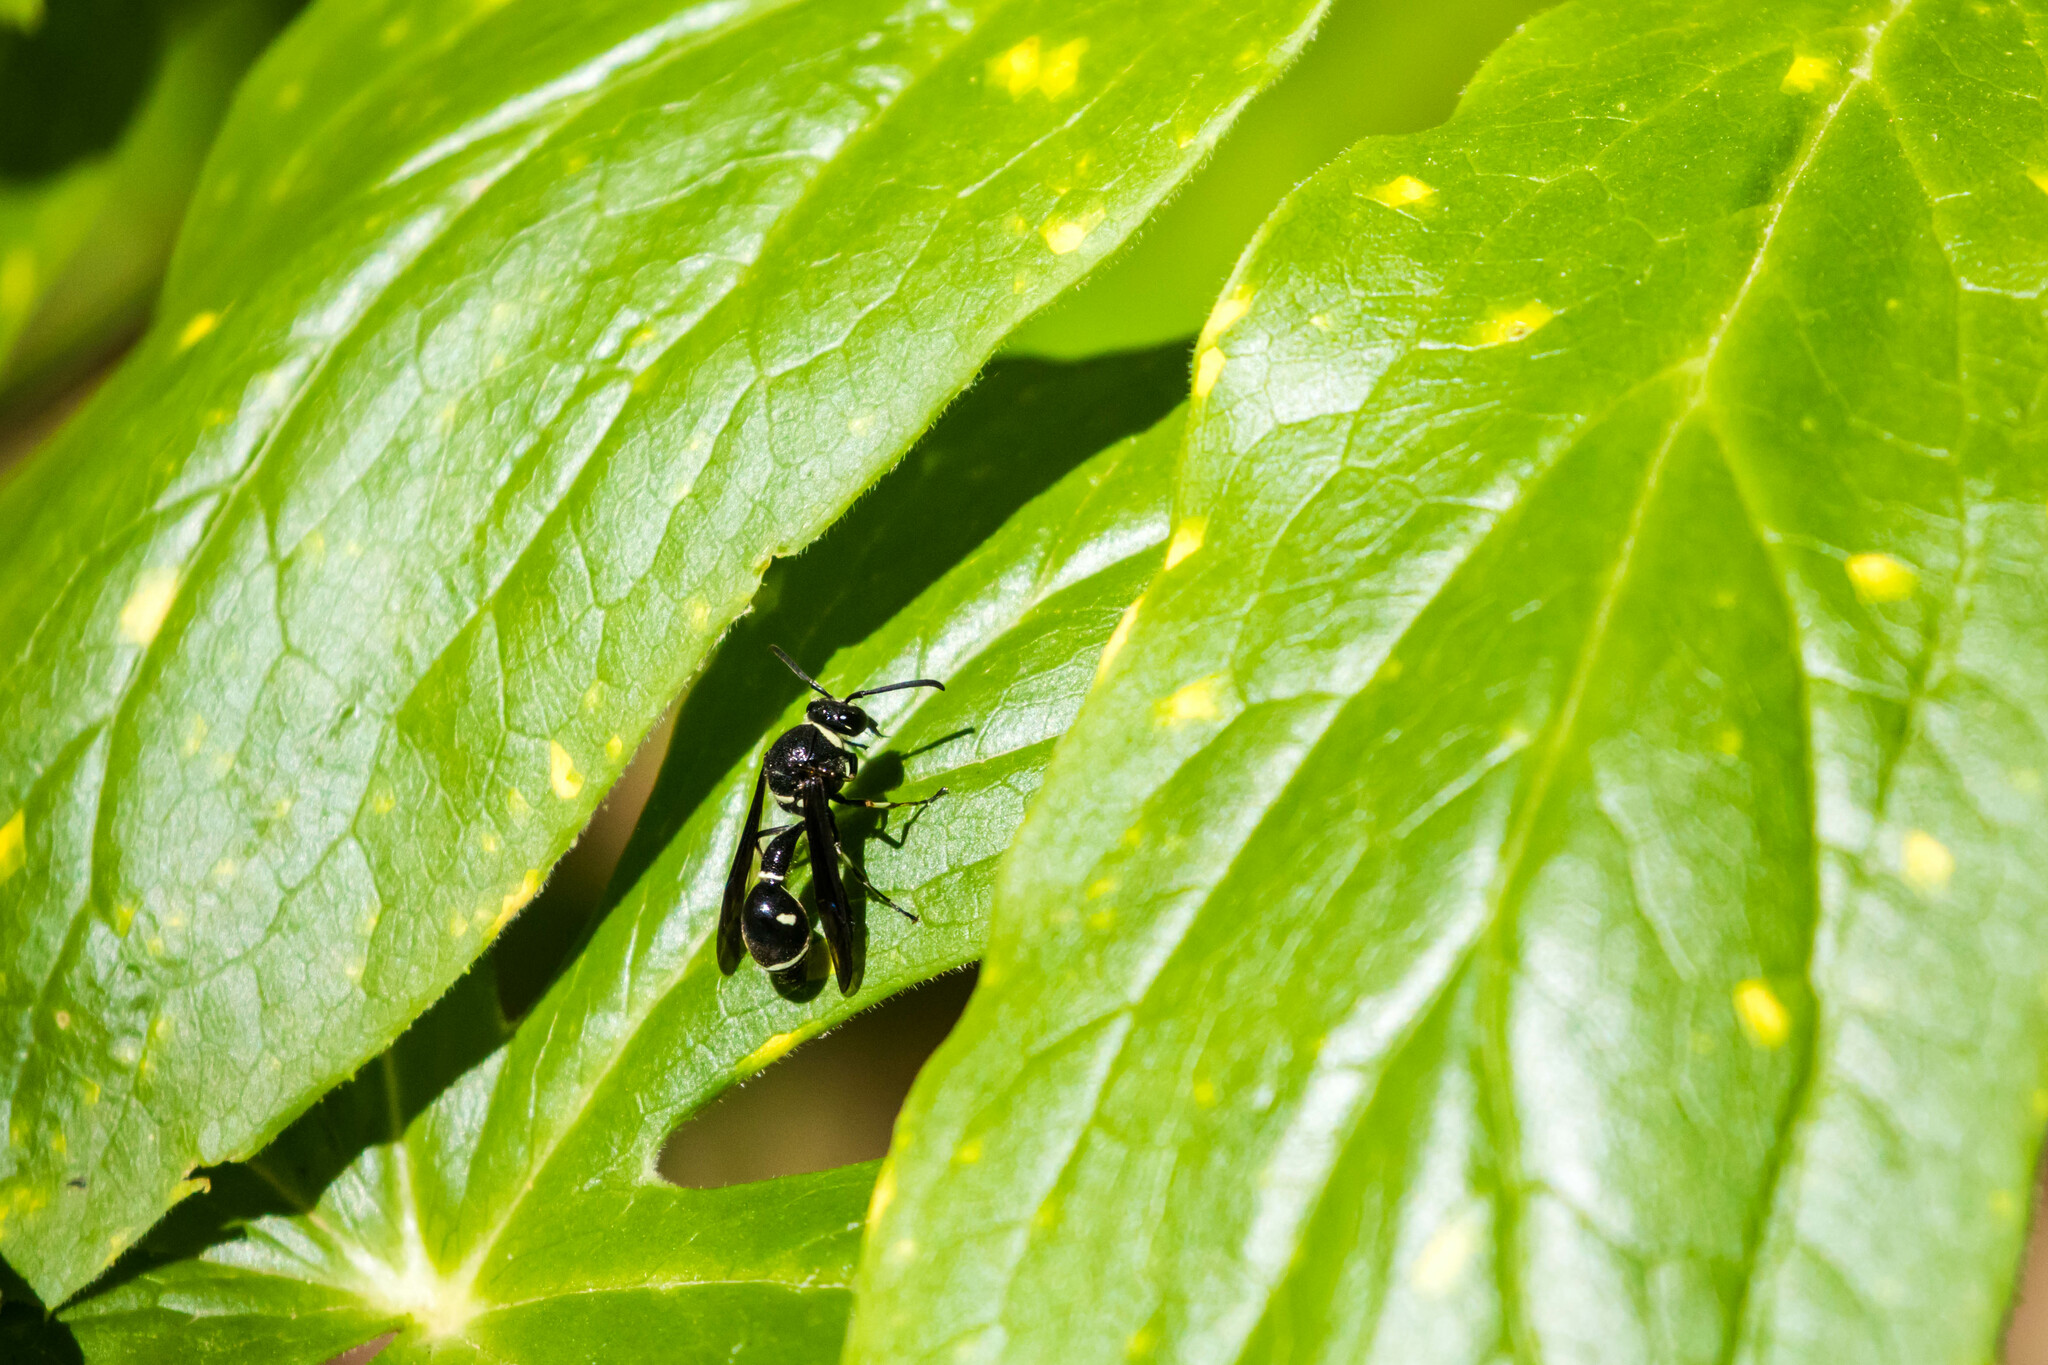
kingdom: Animalia
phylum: Arthropoda
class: Insecta
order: Hymenoptera
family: Vespidae
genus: Eumenes
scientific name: Eumenes fraternus
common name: Fraternal potter wasp
